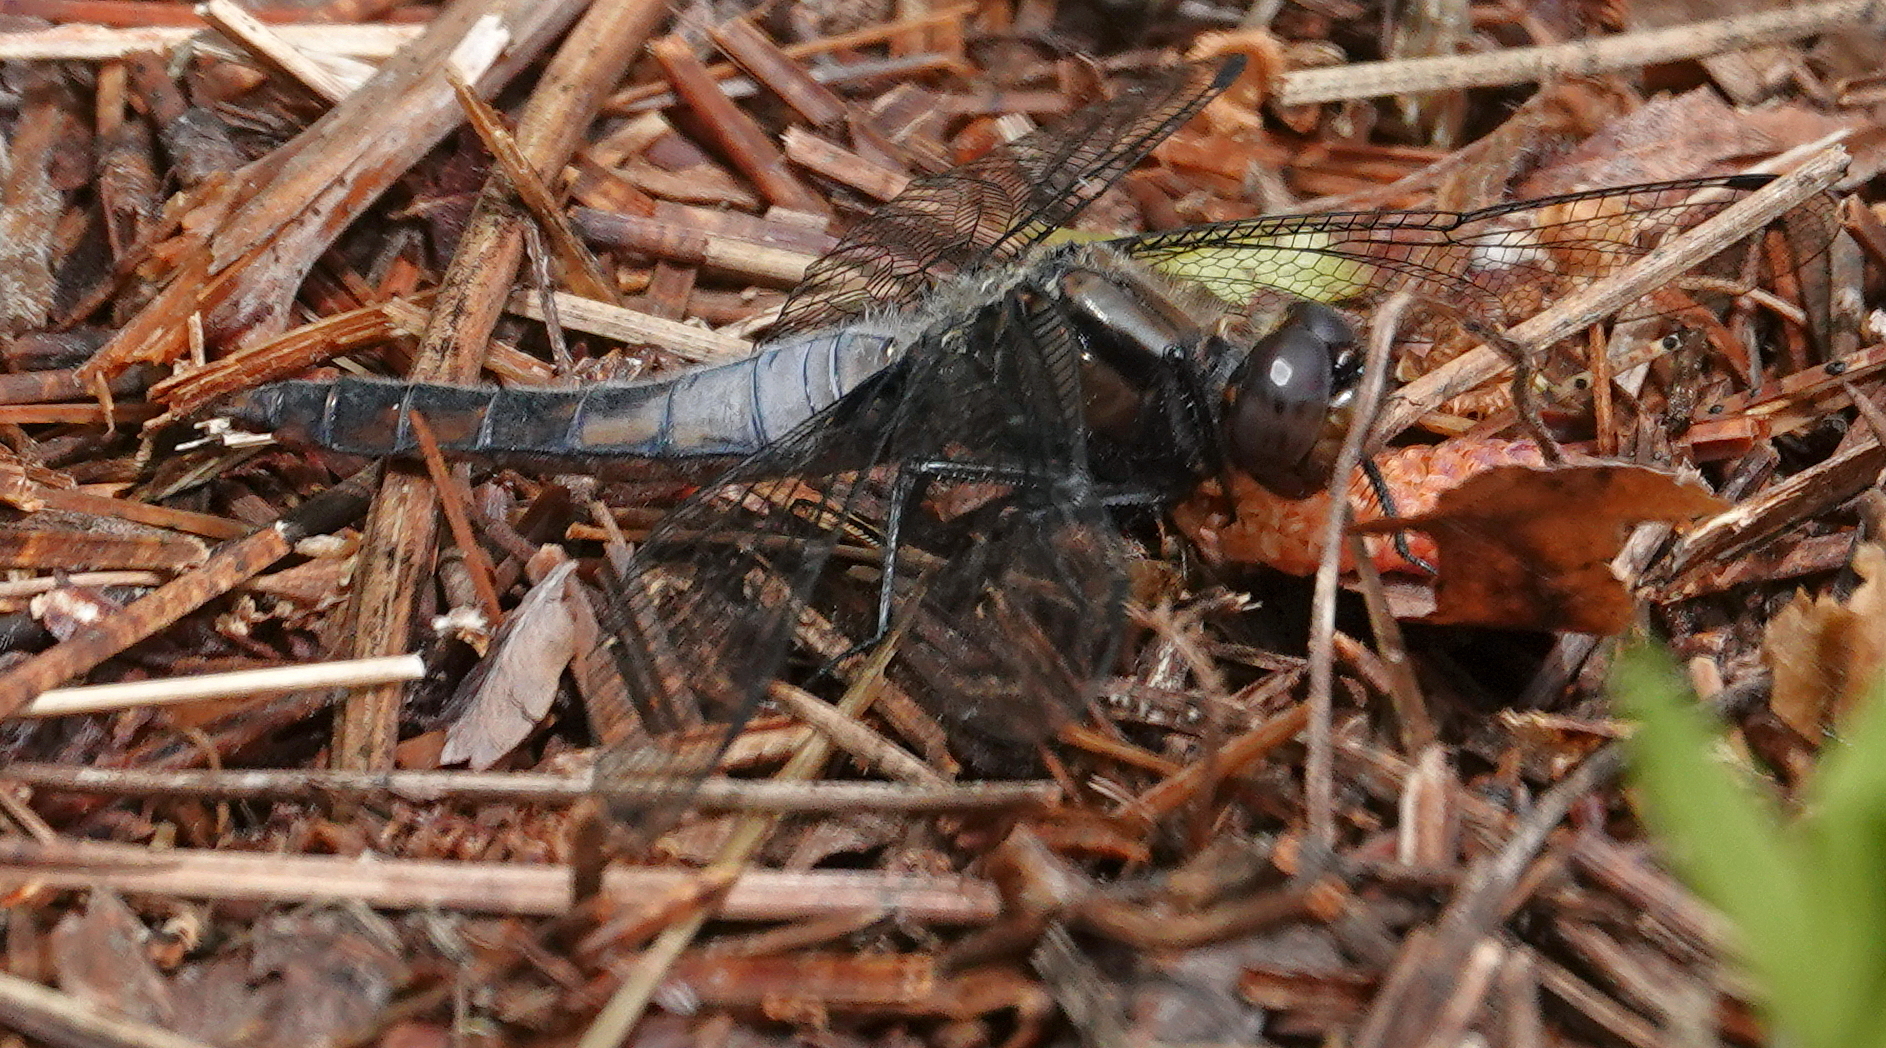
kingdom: Animalia
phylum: Arthropoda
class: Insecta
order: Odonata
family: Libellulidae
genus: Ladona
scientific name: Ladona julia
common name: Chalk-fronted corporal
